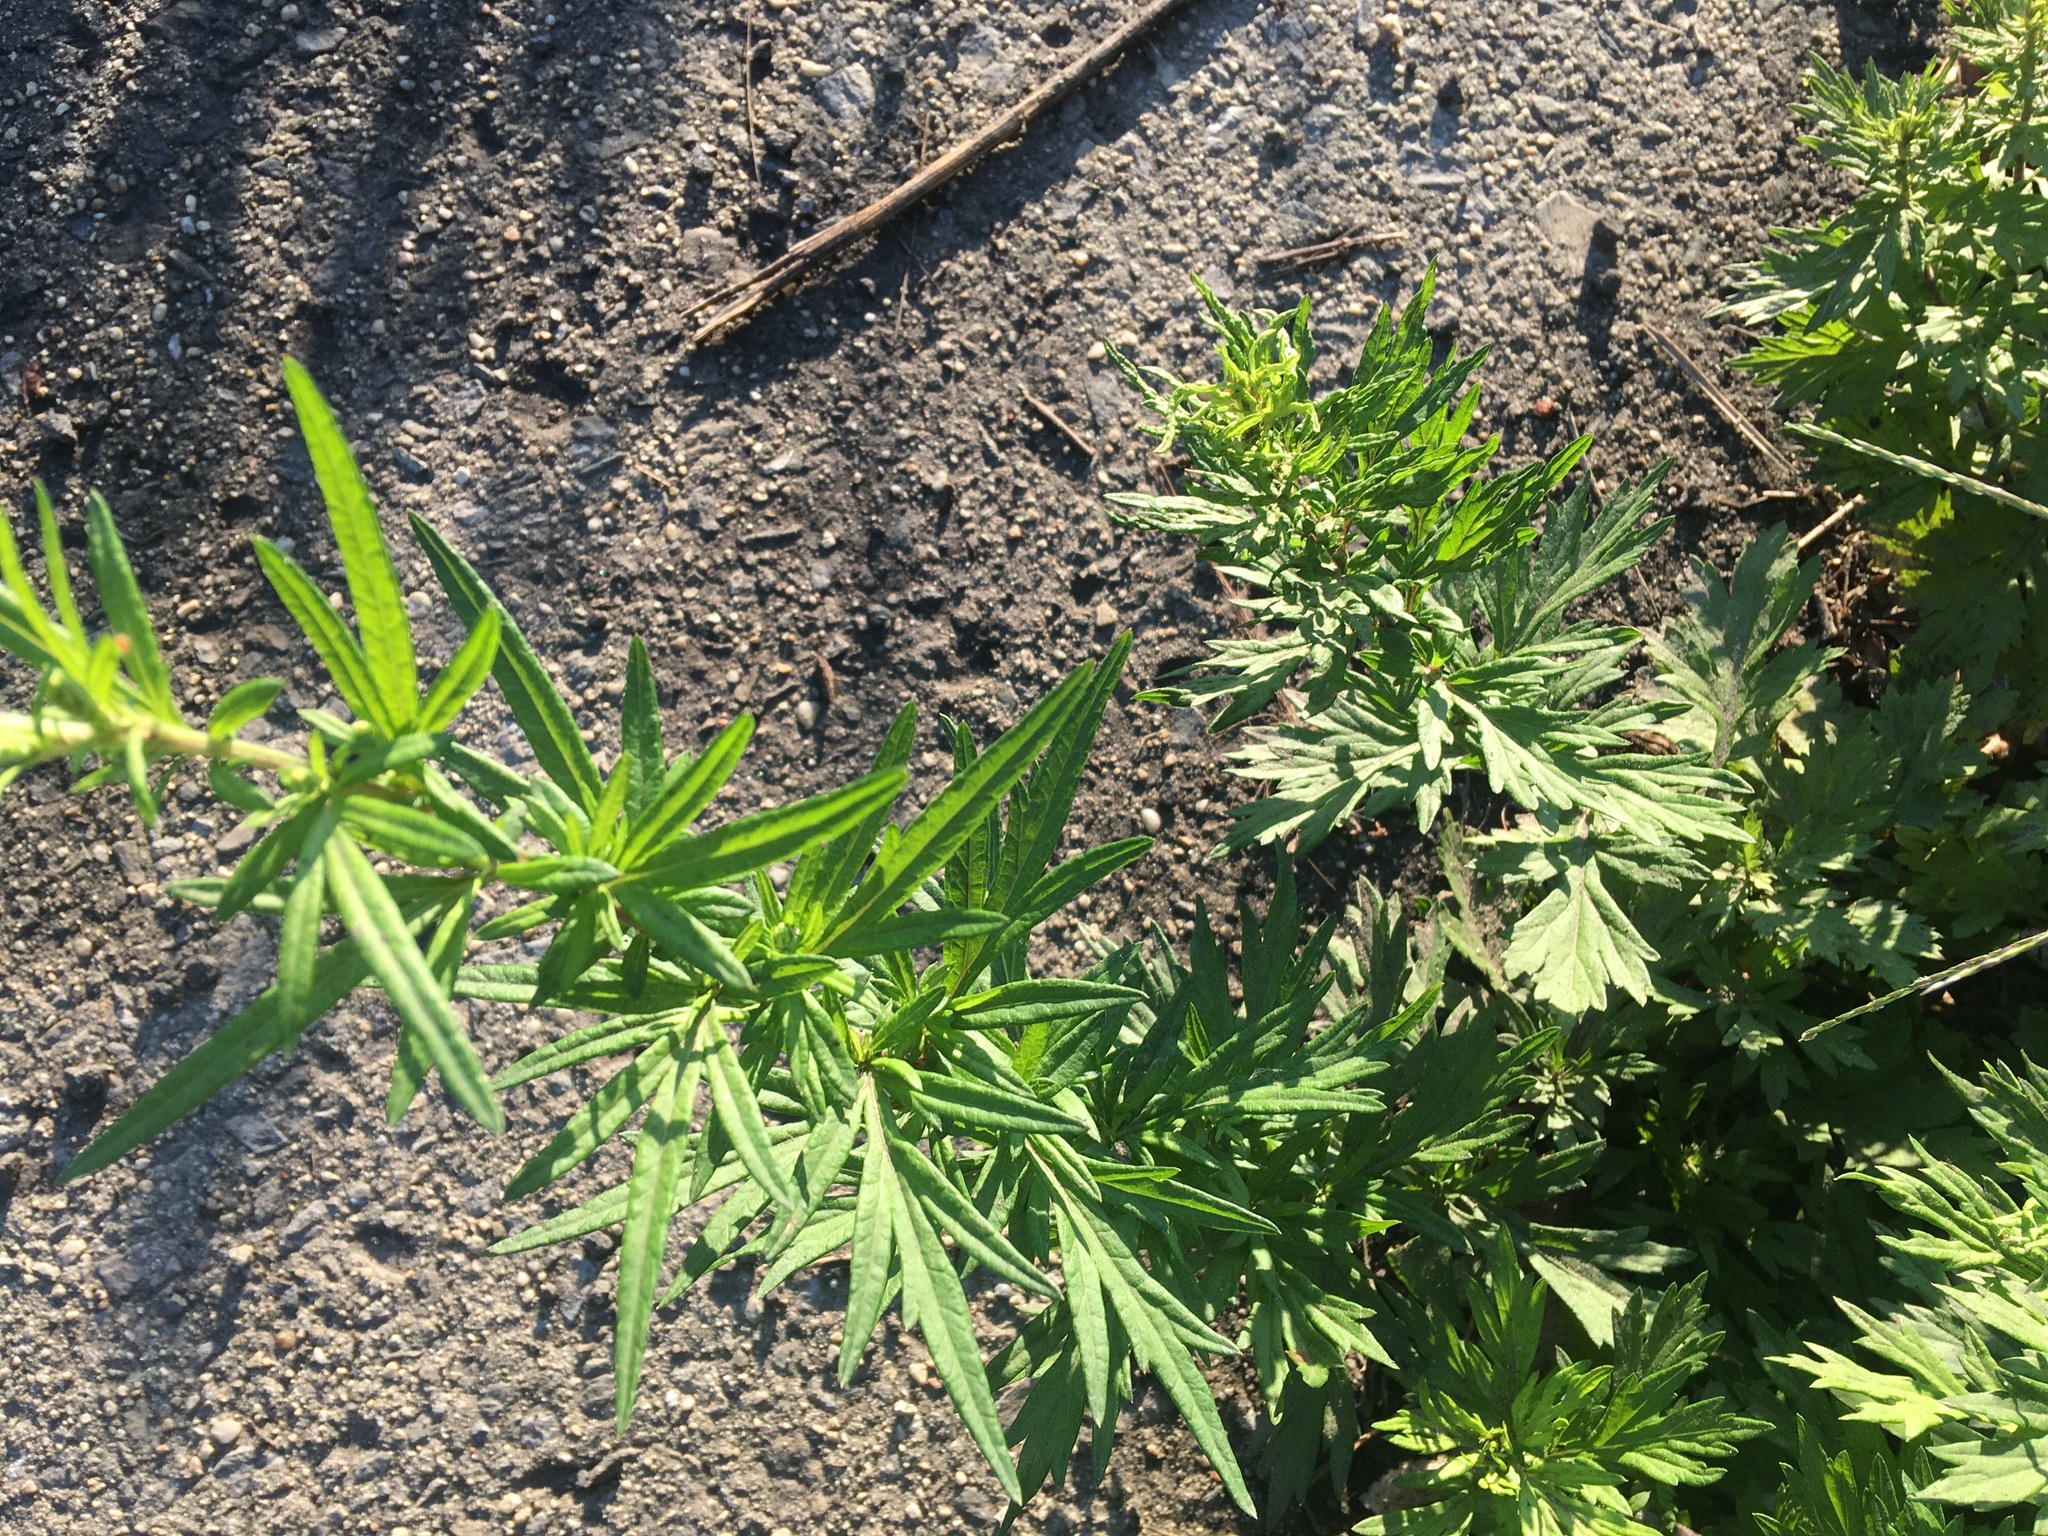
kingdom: Plantae
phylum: Tracheophyta
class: Magnoliopsida
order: Asterales
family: Asteraceae
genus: Artemisia
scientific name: Artemisia vulgaris
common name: Mugwort
